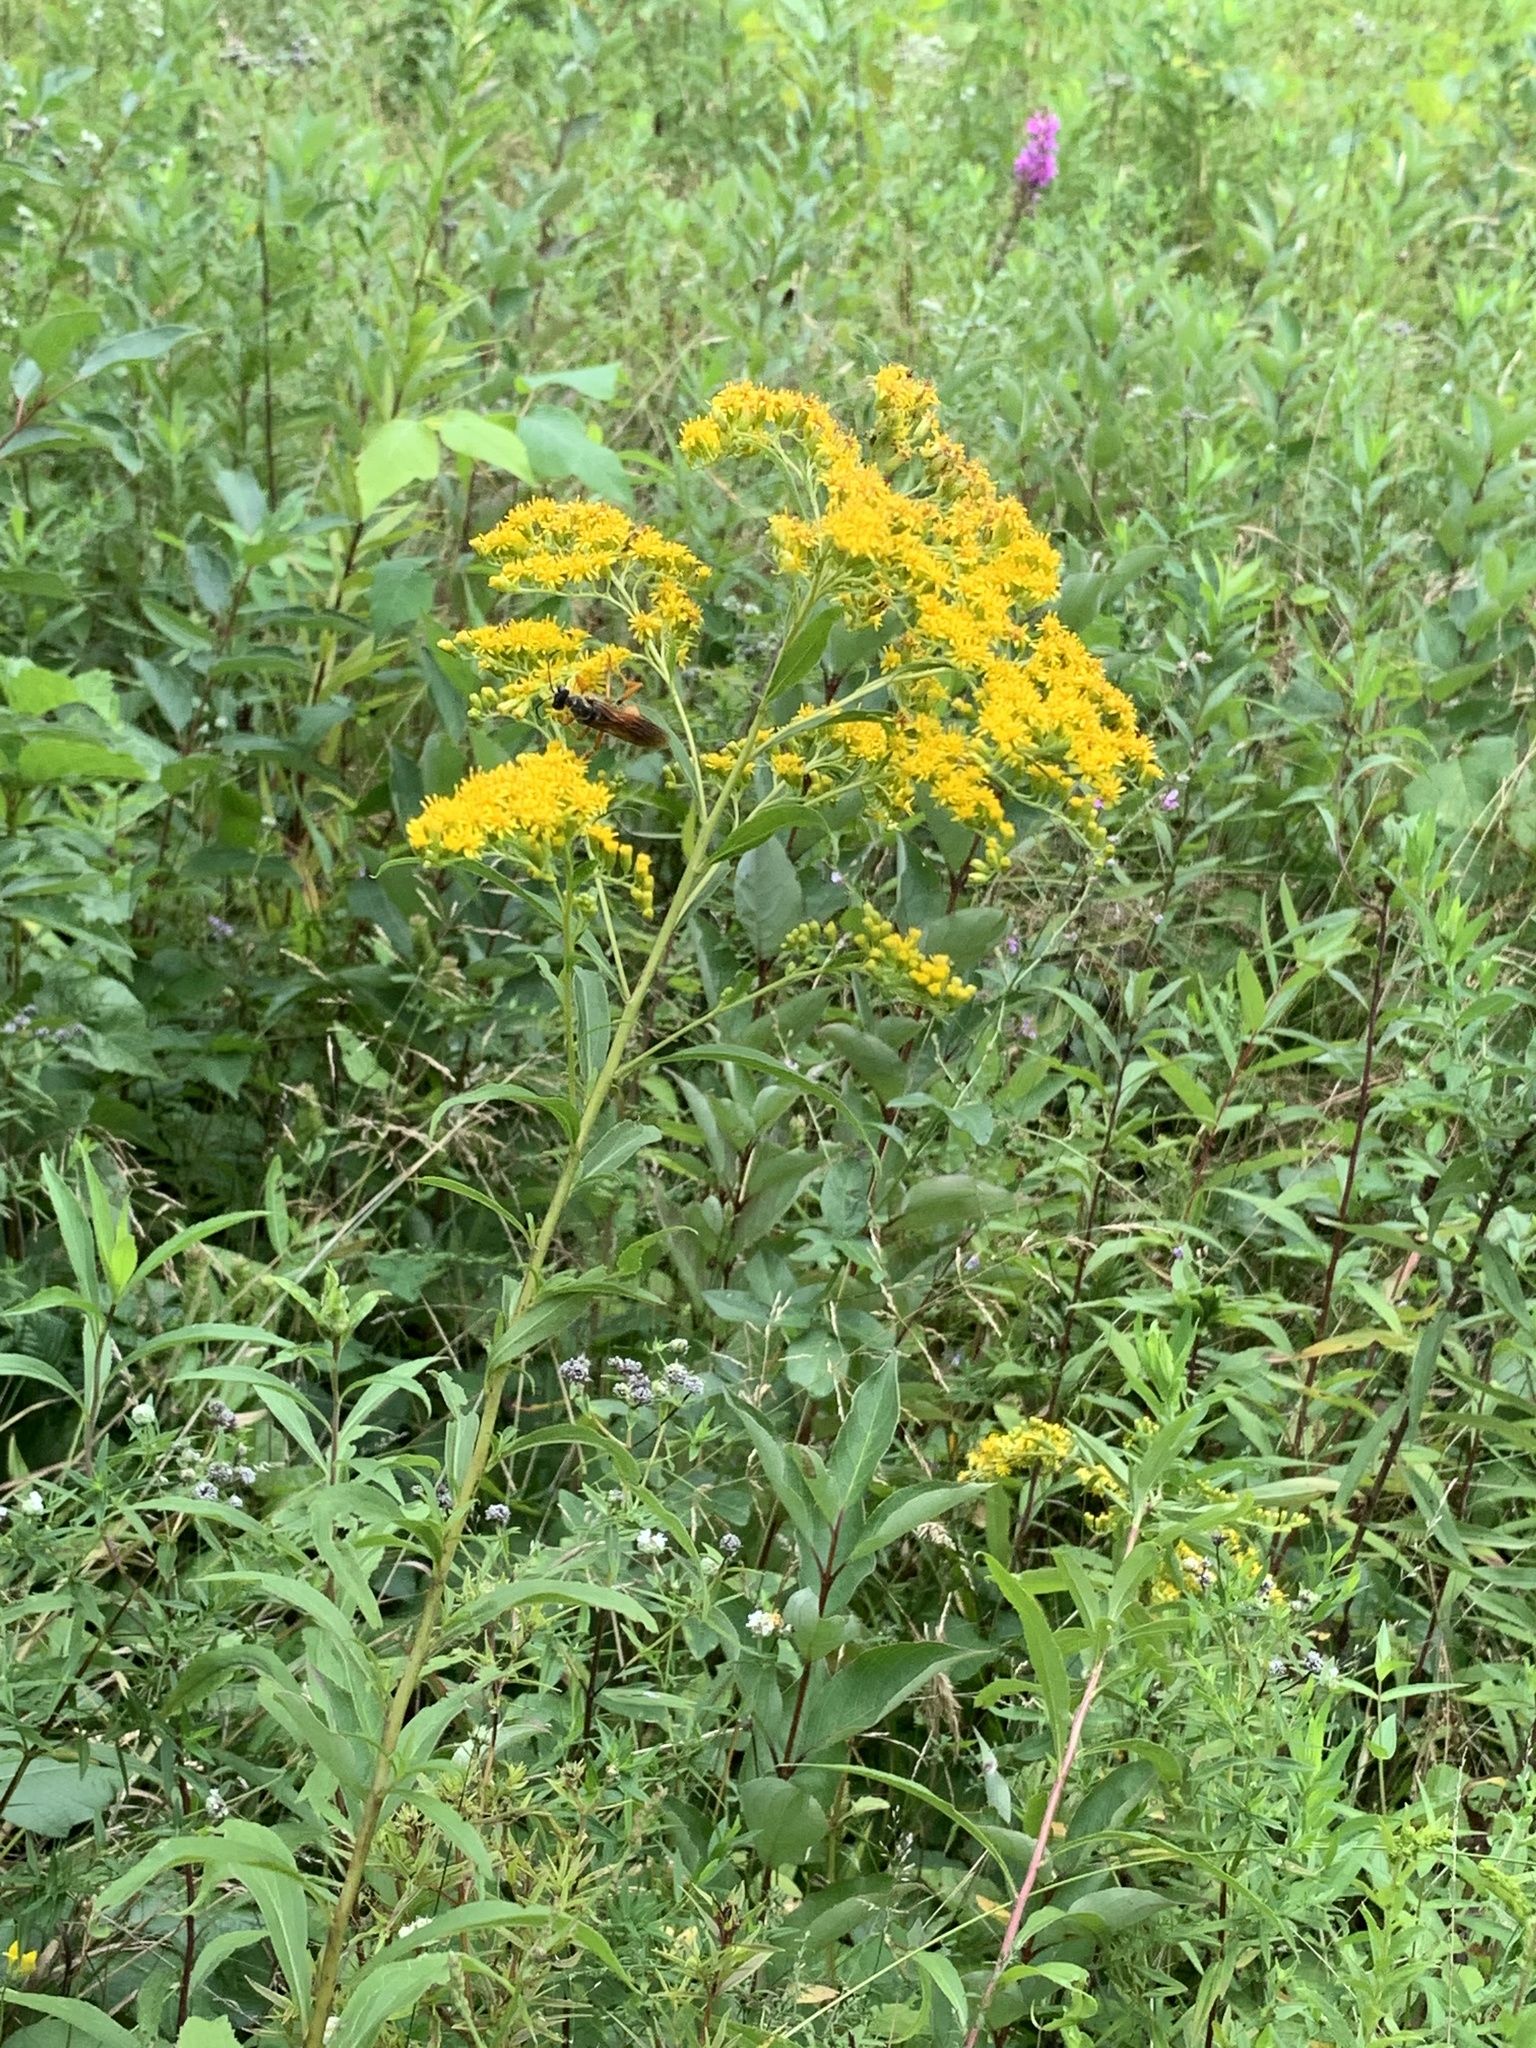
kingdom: Animalia
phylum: Arthropoda
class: Insecta
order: Hymenoptera
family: Sphecidae
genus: Sphex
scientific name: Sphex ichneumoneus
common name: Great golden digger wasp
